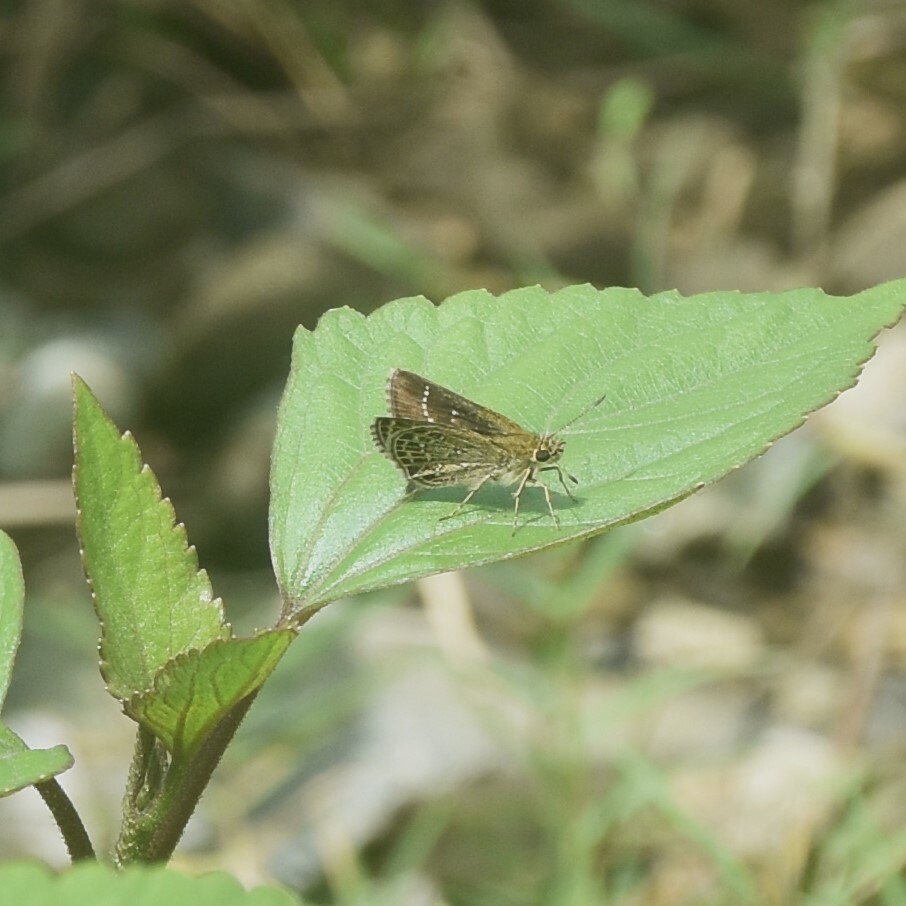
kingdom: Animalia
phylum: Arthropoda
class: Insecta
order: Lepidoptera
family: Hesperiidae
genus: Aeromachus
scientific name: Aeromachus stigmata
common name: Veined scrub hopper
